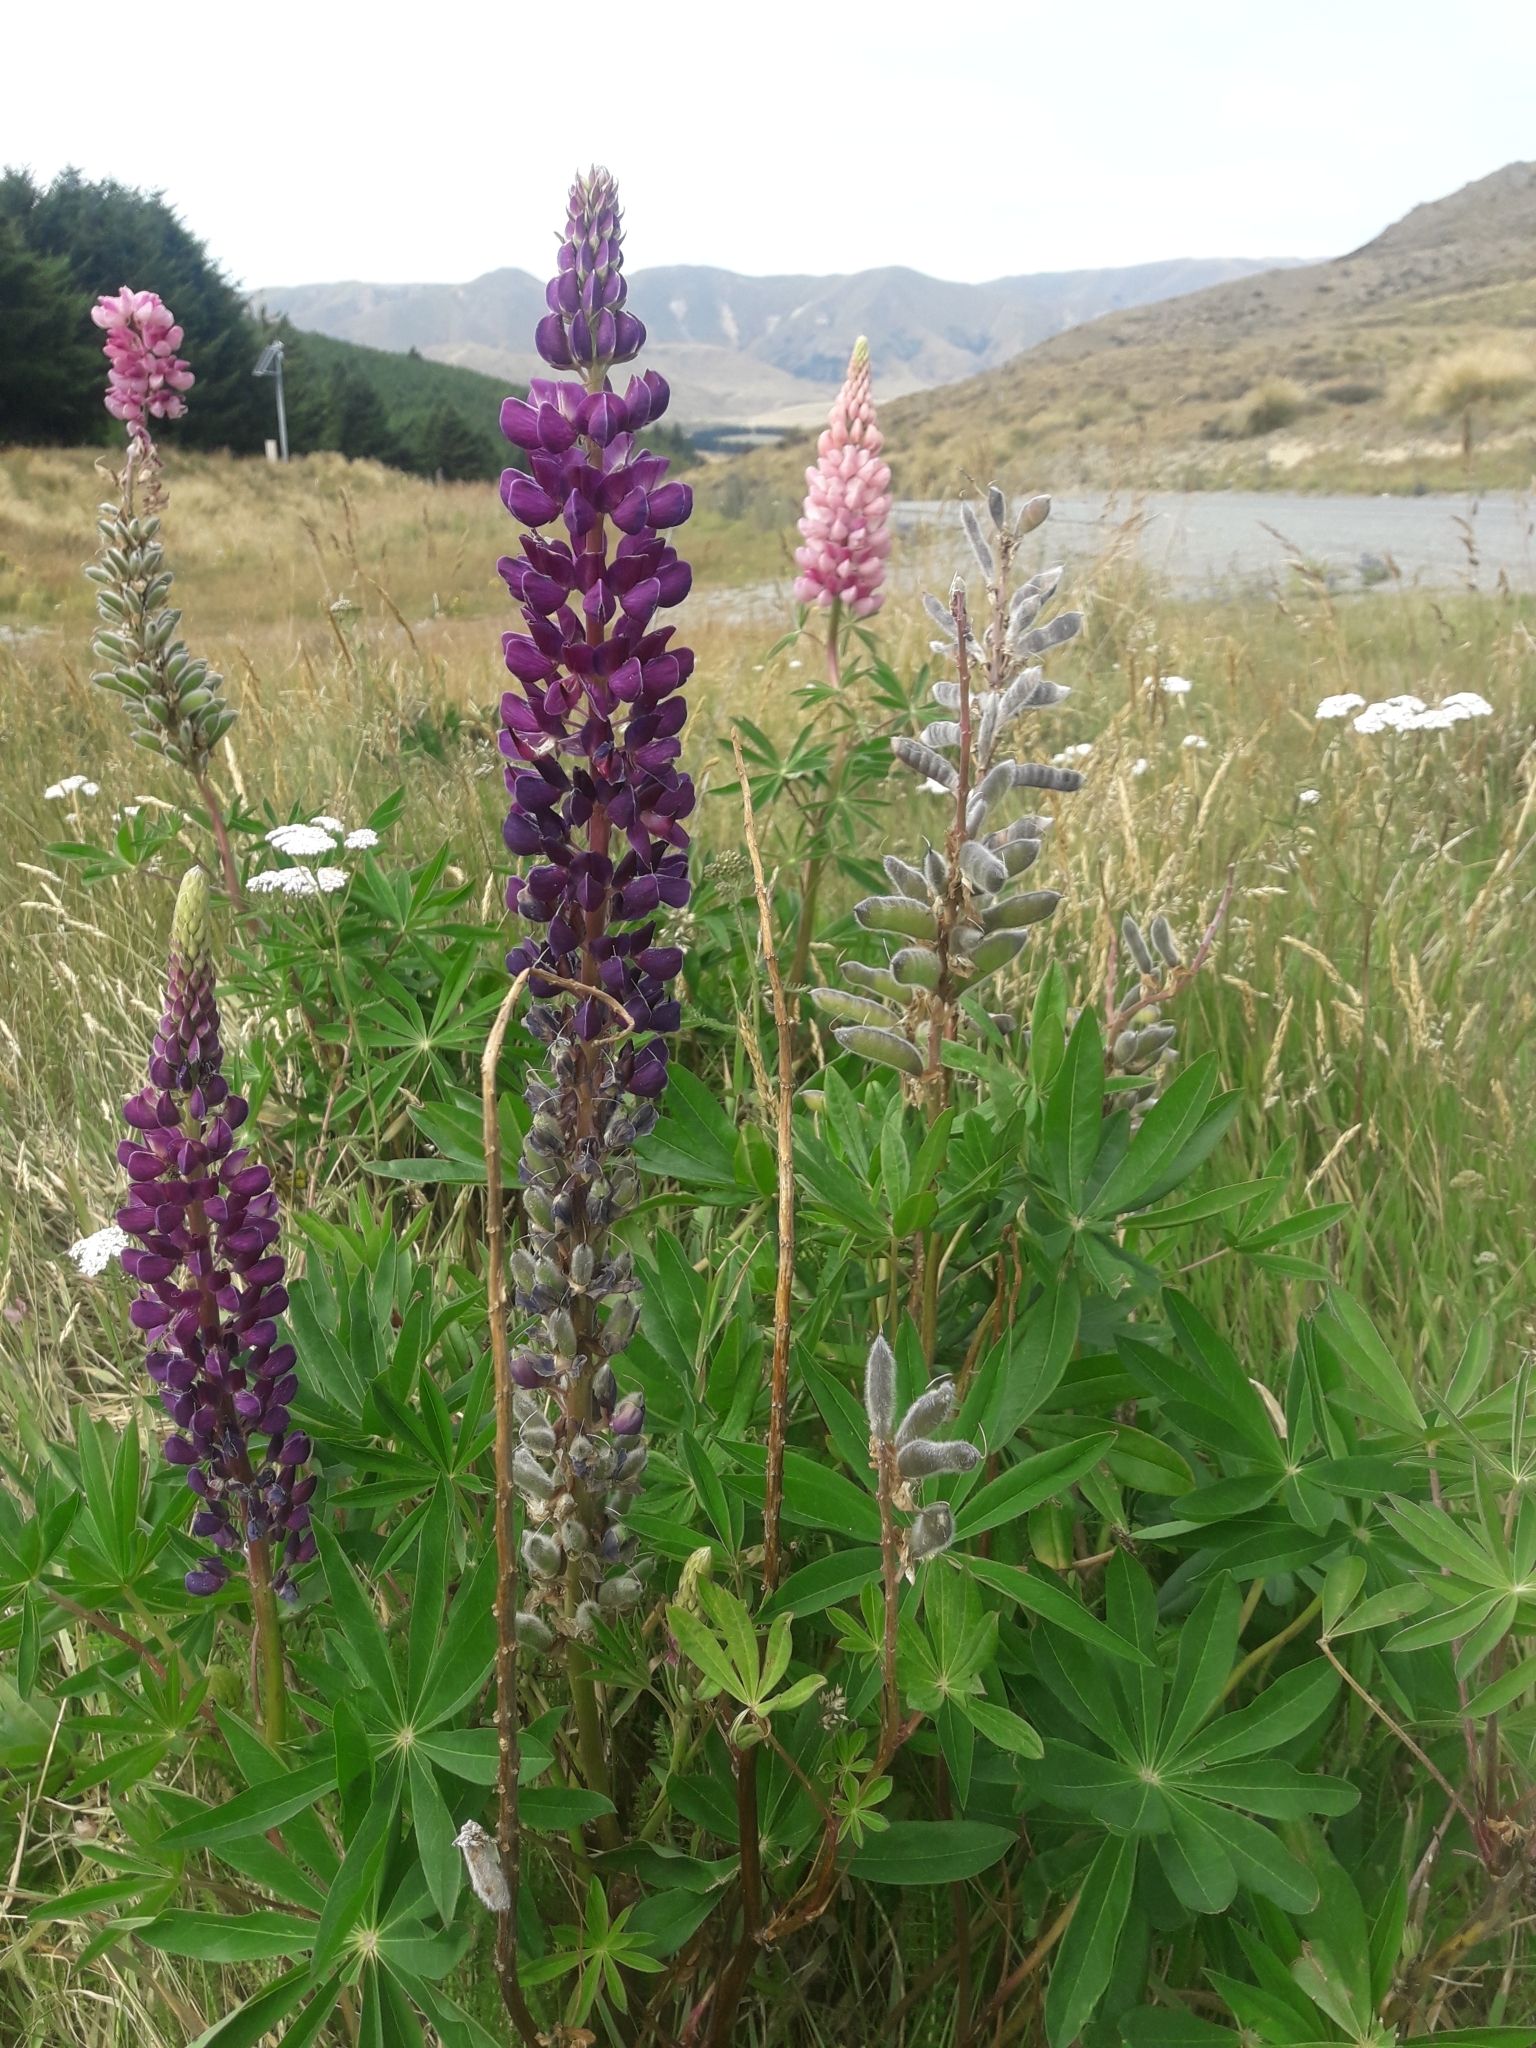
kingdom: Plantae
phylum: Tracheophyta
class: Magnoliopsida
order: Fabales
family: Fabaceae
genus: Lupinus
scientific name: Lupinus polyphyllus
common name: Garden lupin
